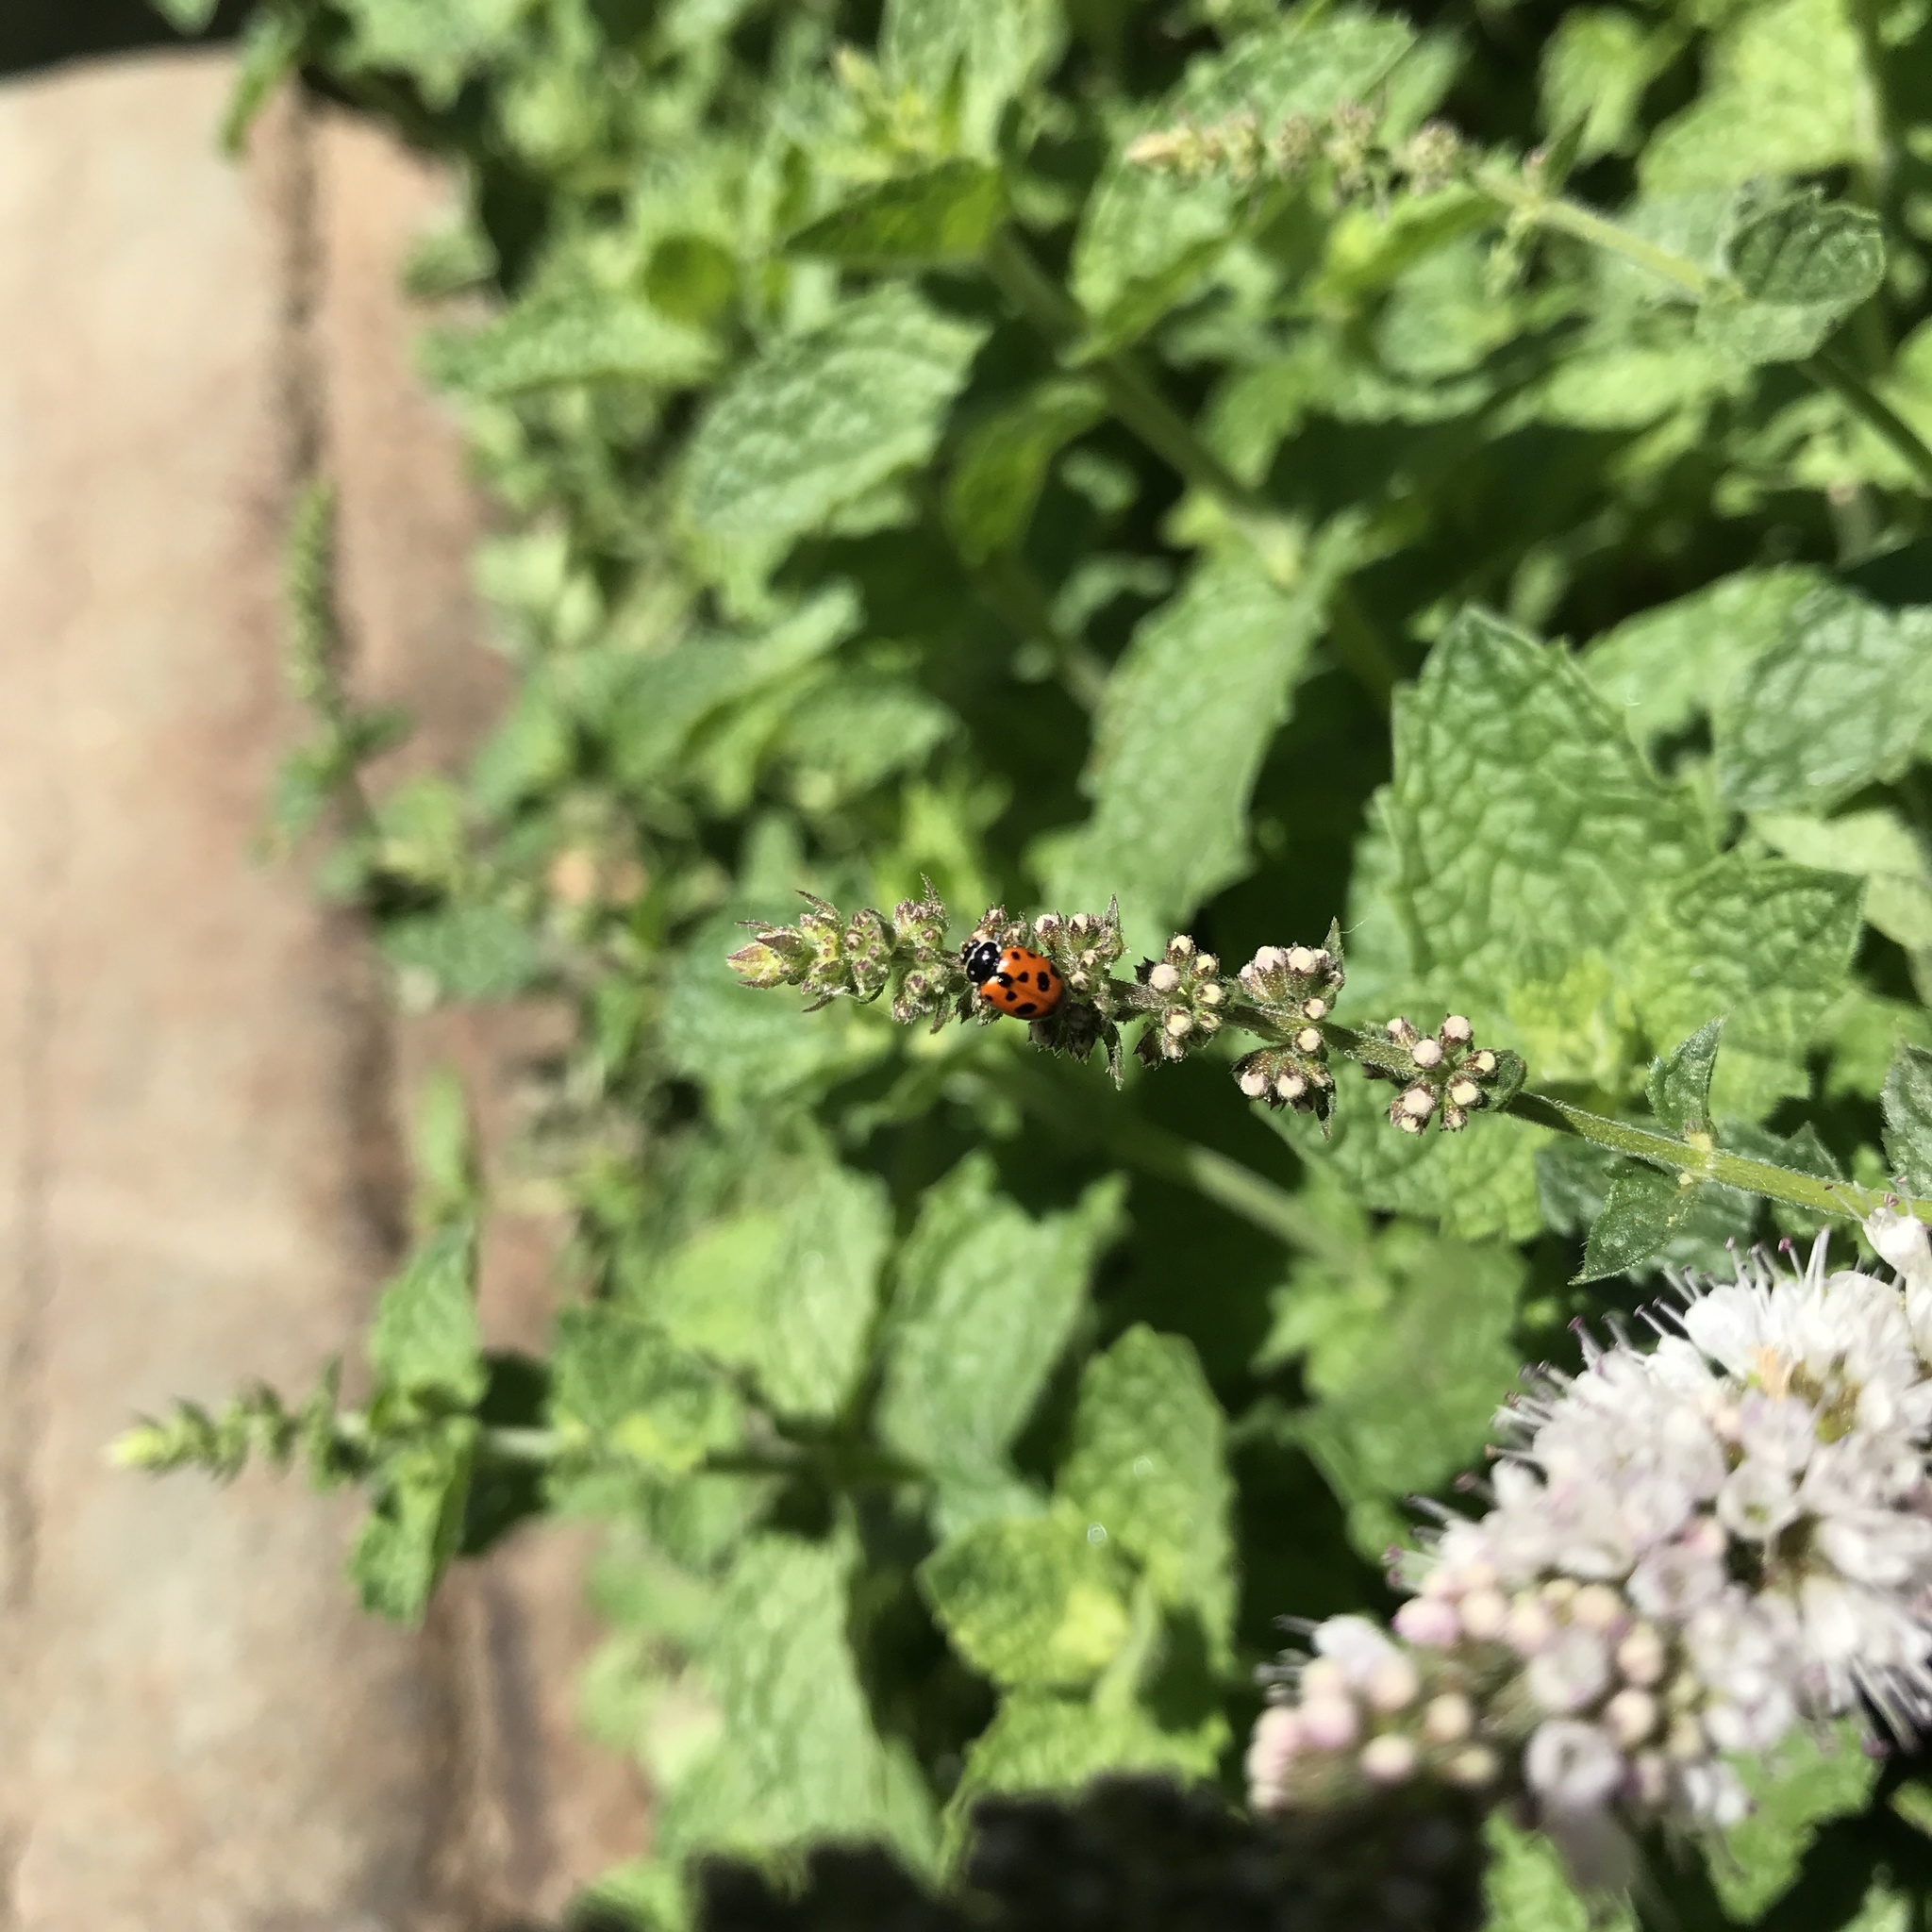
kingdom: Animalia
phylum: Arthropoda
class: Insecta
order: Coleoptera
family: Coccinellidae
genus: Hippodamia
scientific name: Hippodamia variegata
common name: Ladybird beetle
